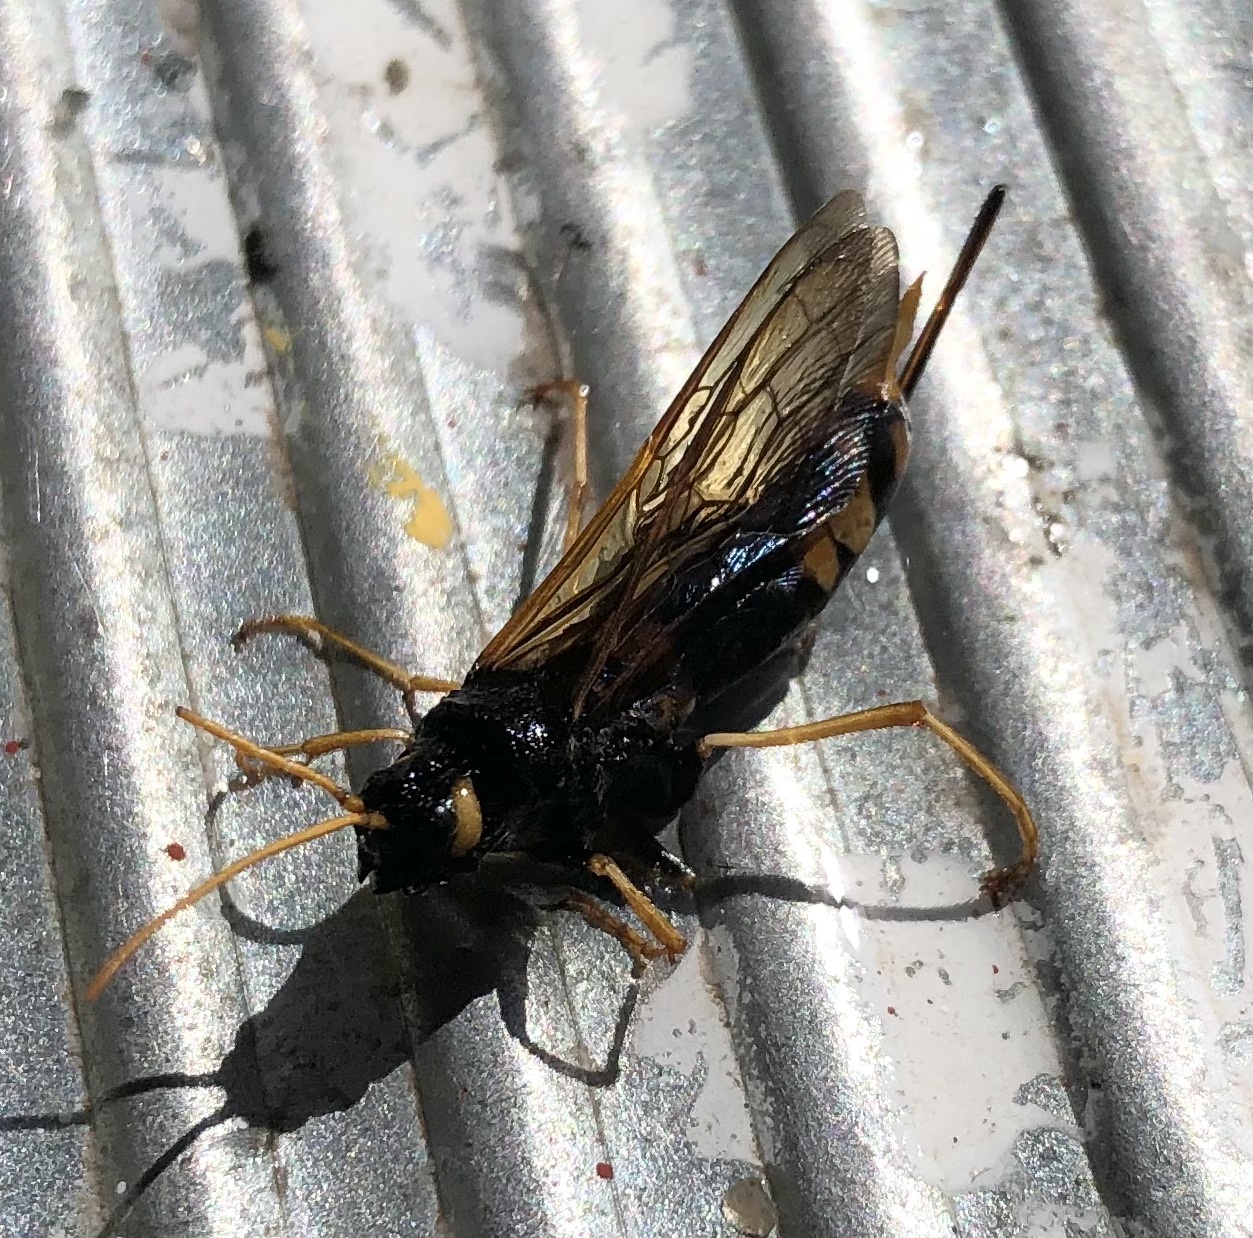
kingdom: Animalia
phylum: Arthropoda
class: Insecta
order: Hymenoptera
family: Siricidae
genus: Urocerus
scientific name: Urocerus gigas
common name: Giant woodwasp
